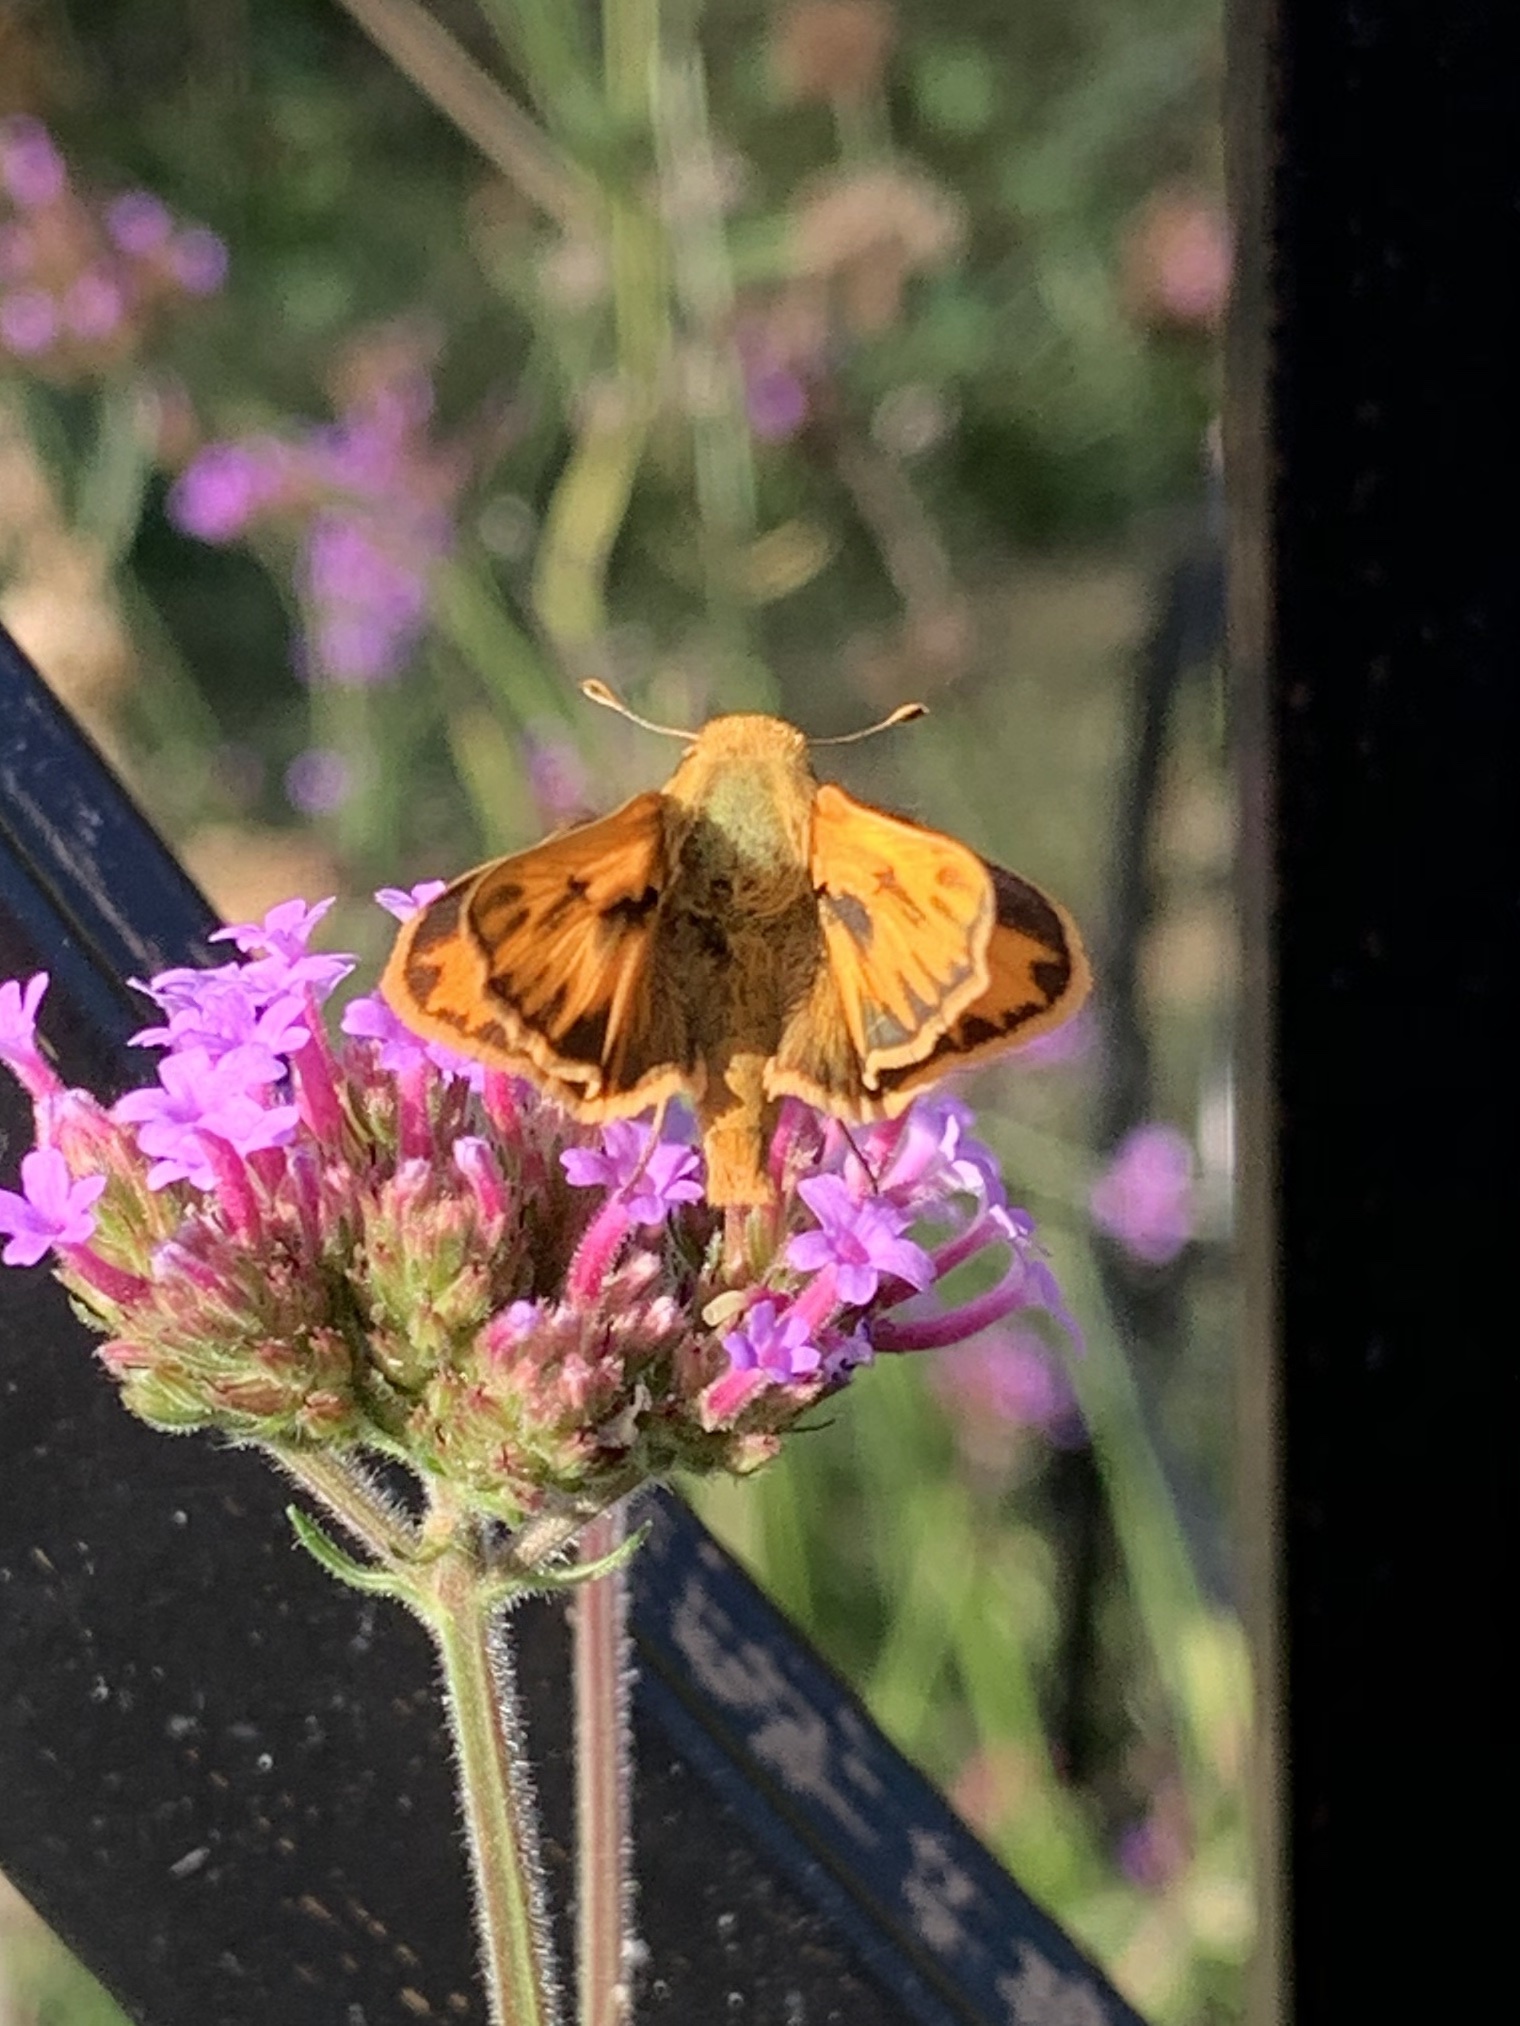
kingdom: Animalia
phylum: Arthropoda
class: Insecta
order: Lepidoptera
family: Hesperiidae
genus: Hylephila
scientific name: Hylephila phyleus
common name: Fiery skipper
